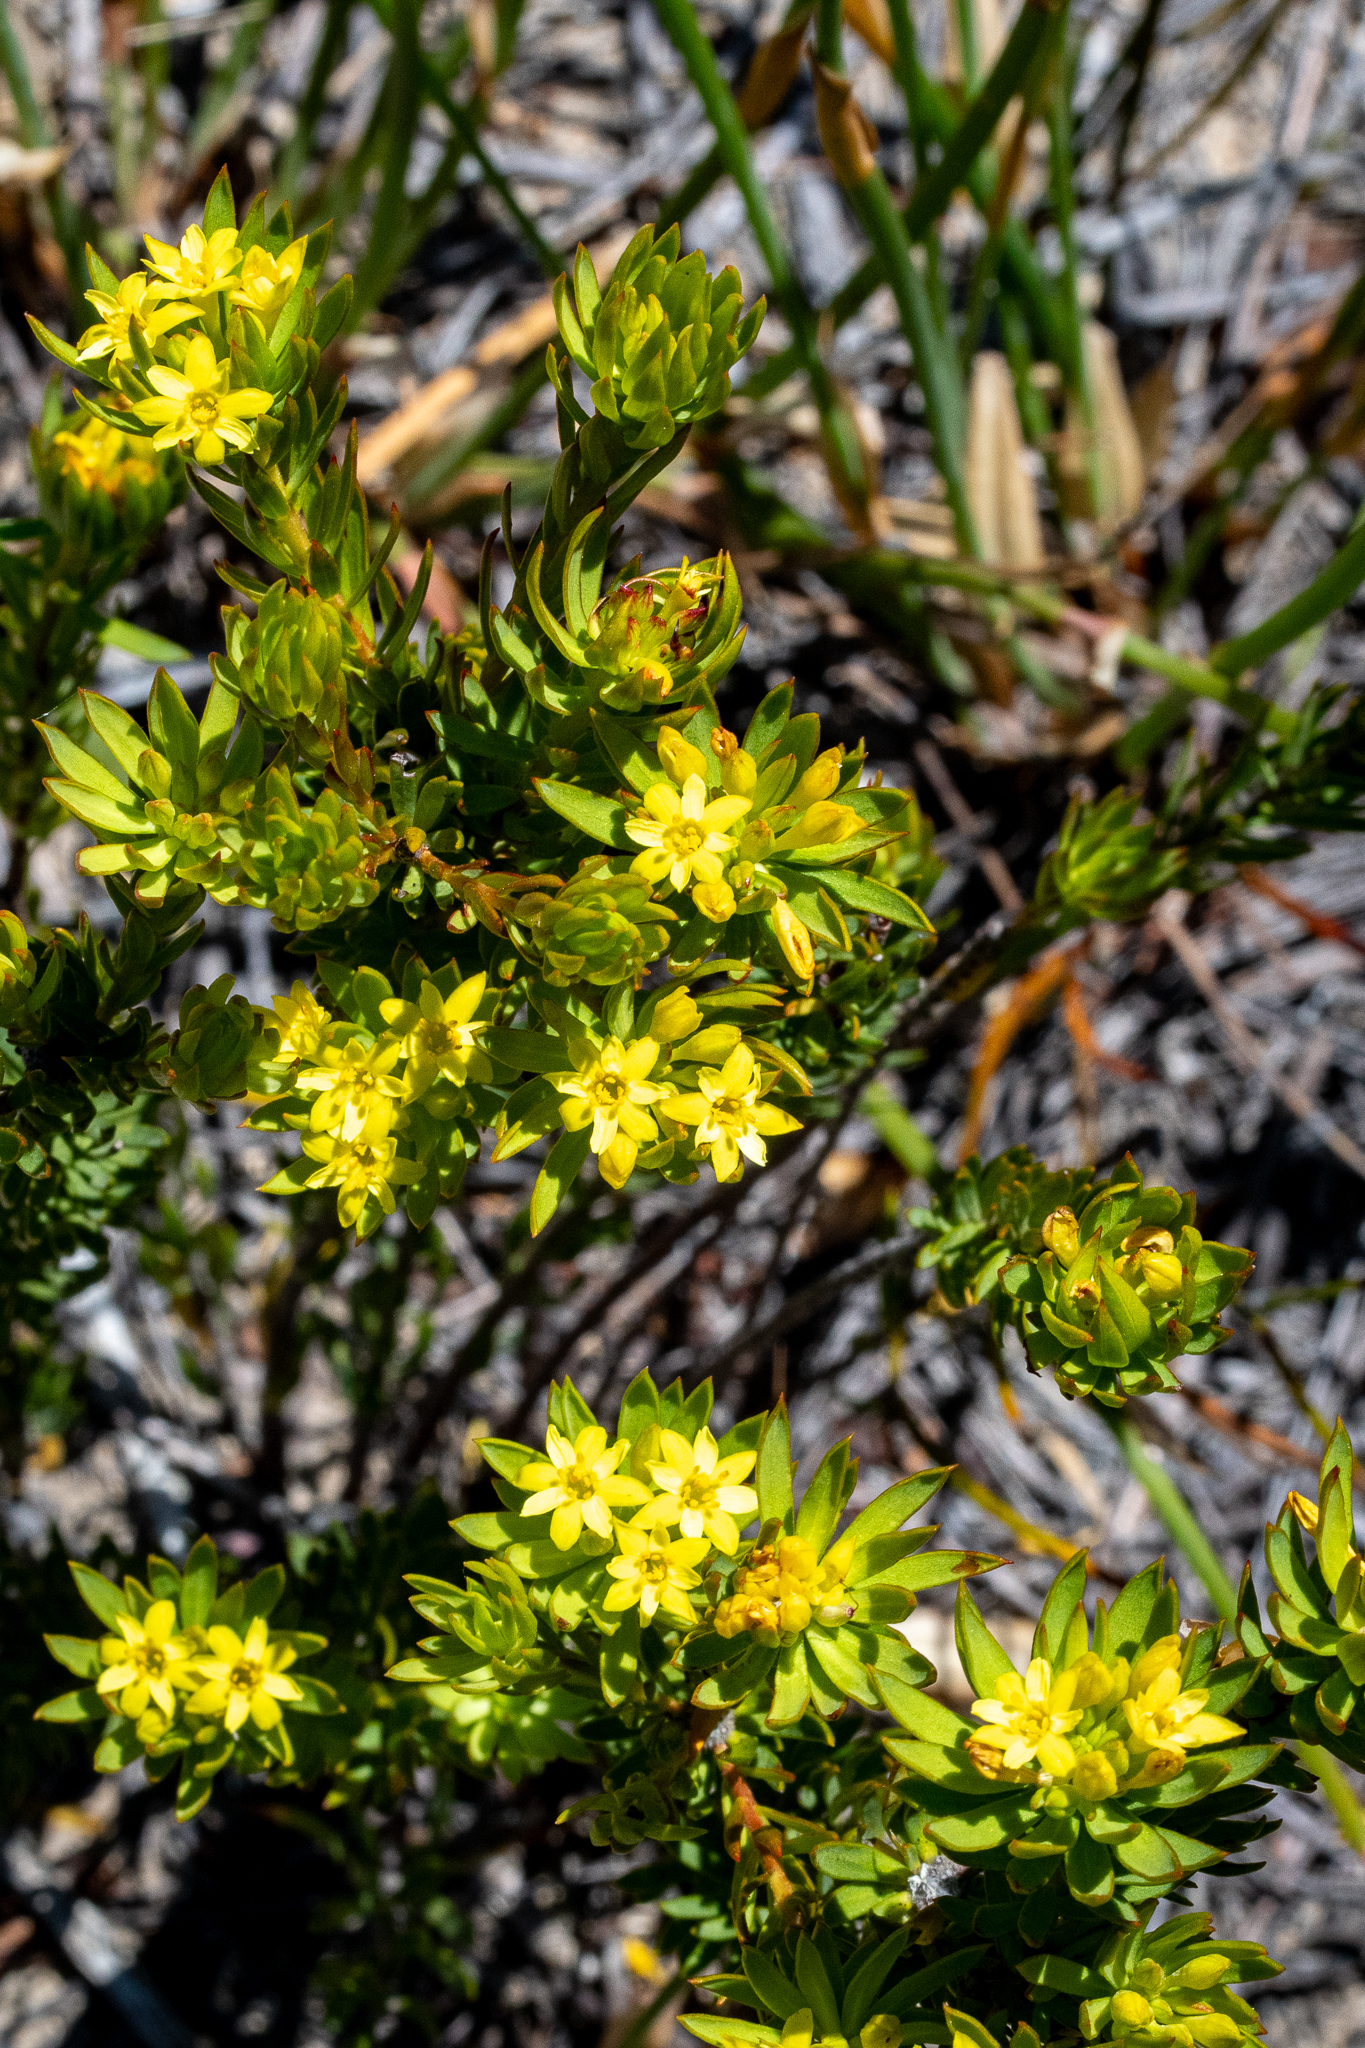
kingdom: Plantae
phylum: Tracheophyta
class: Magnoliopsida
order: Malvales
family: Thymelaeaceae
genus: Gnidia
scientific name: Gnidia juniperifolia
